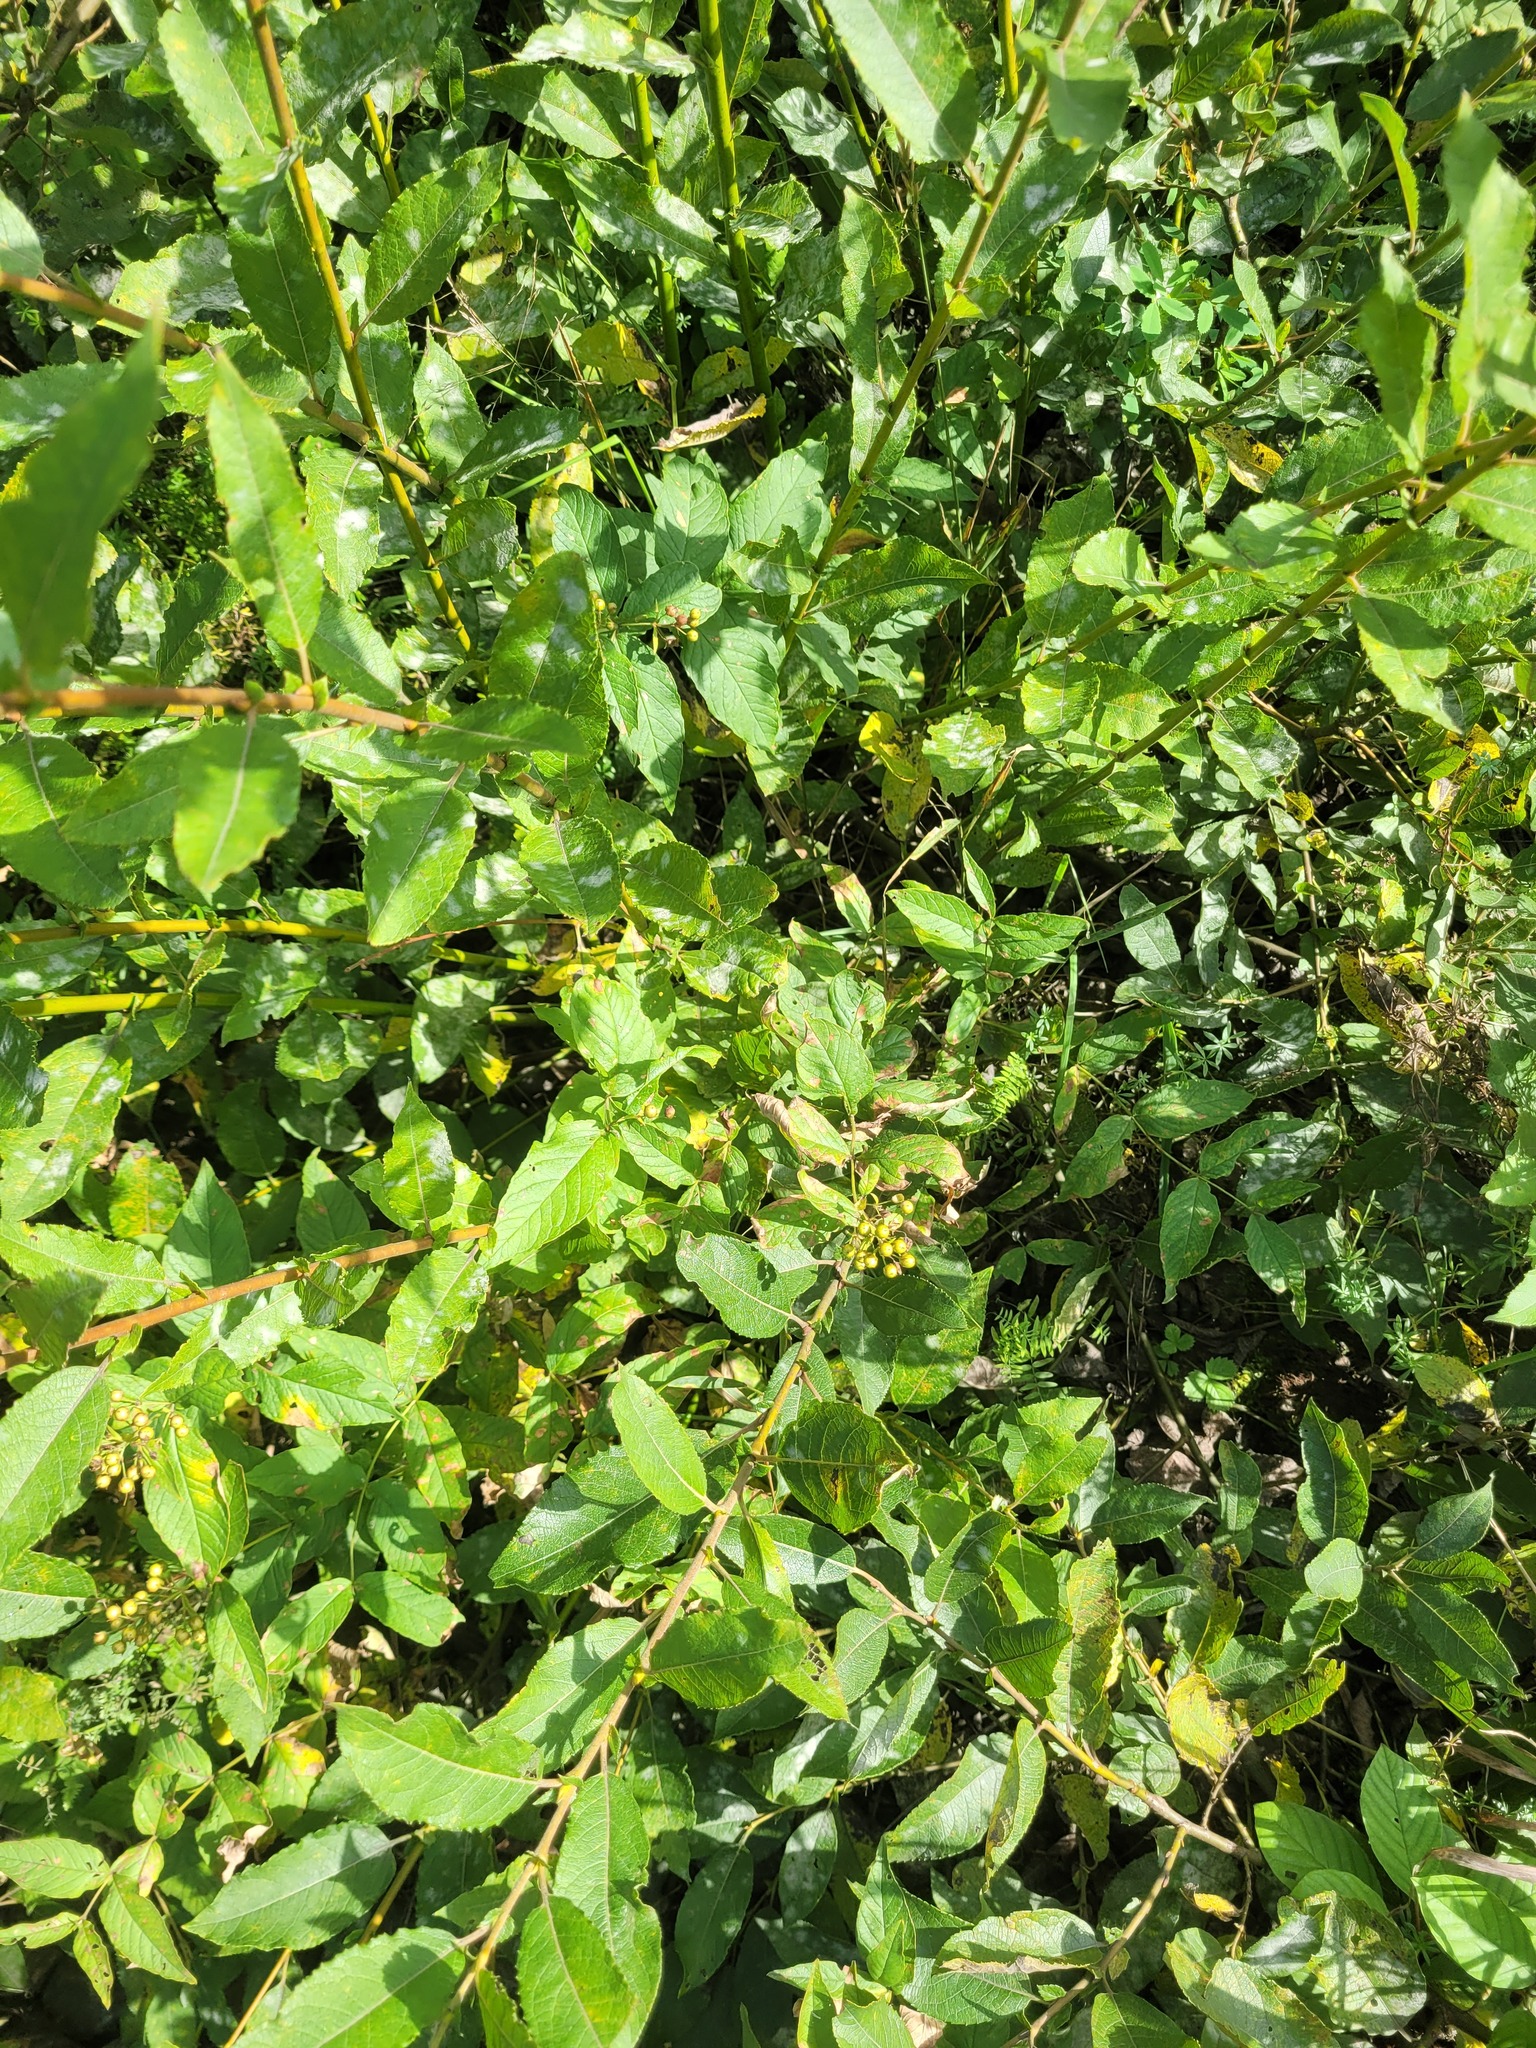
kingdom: Plantae
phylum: Tracheophyta
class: Magnoliopsida
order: Ericales
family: Primulaceae
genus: Lysimachia
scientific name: Lysimachia vulgaris
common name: Yellow loosestrife
